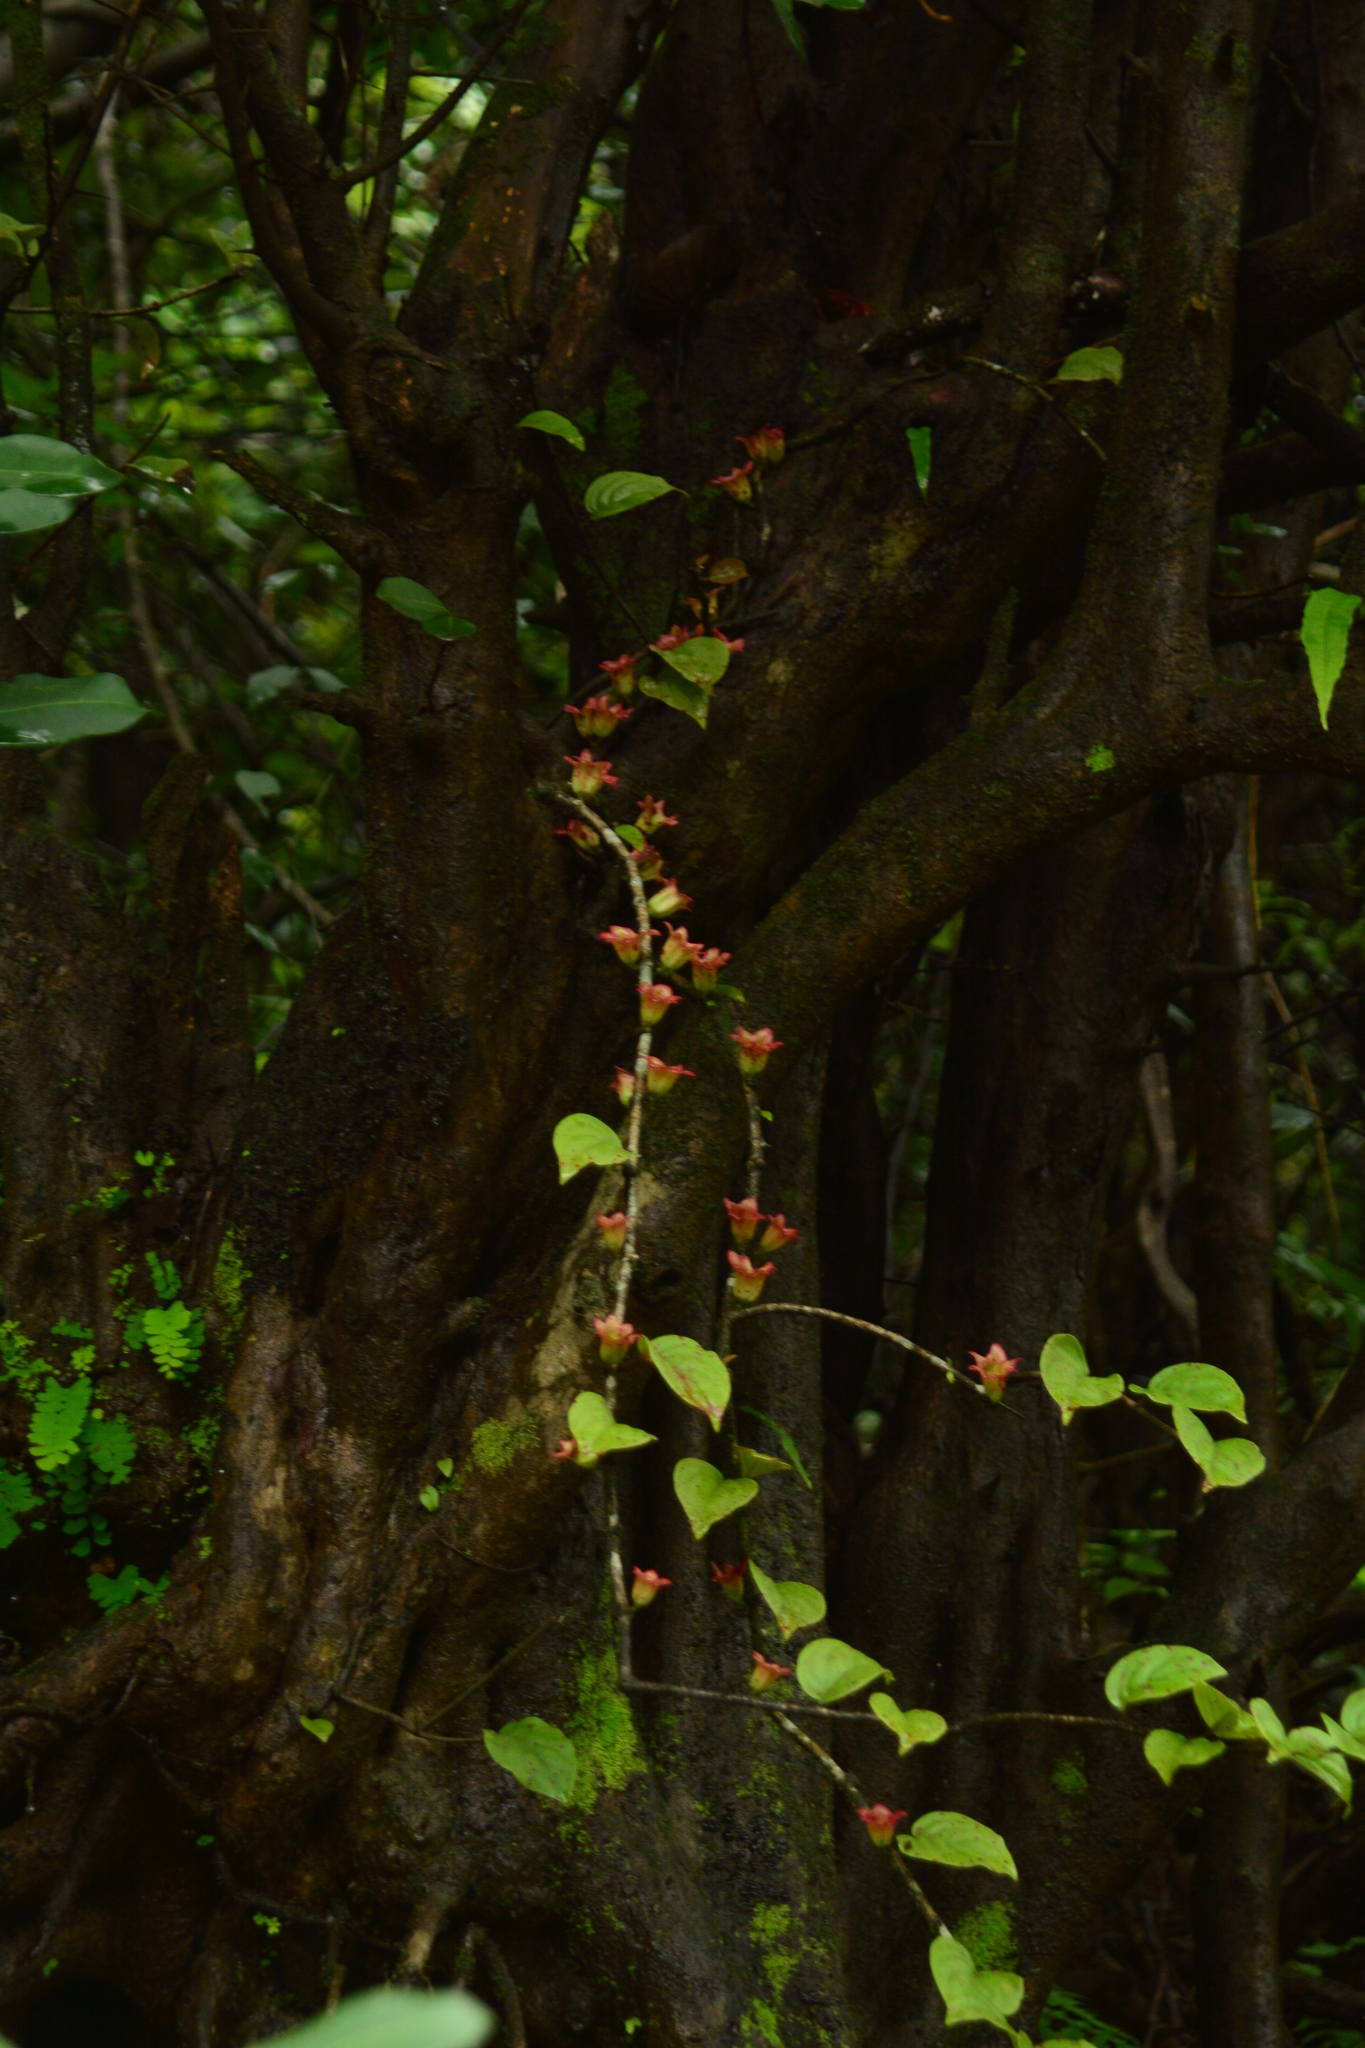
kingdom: Plantae
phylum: Tracheophyta
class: Magnoliopsida
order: Santalales
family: Loranthaceae
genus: Tolypanthus
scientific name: Tolypanthus lagenifer
